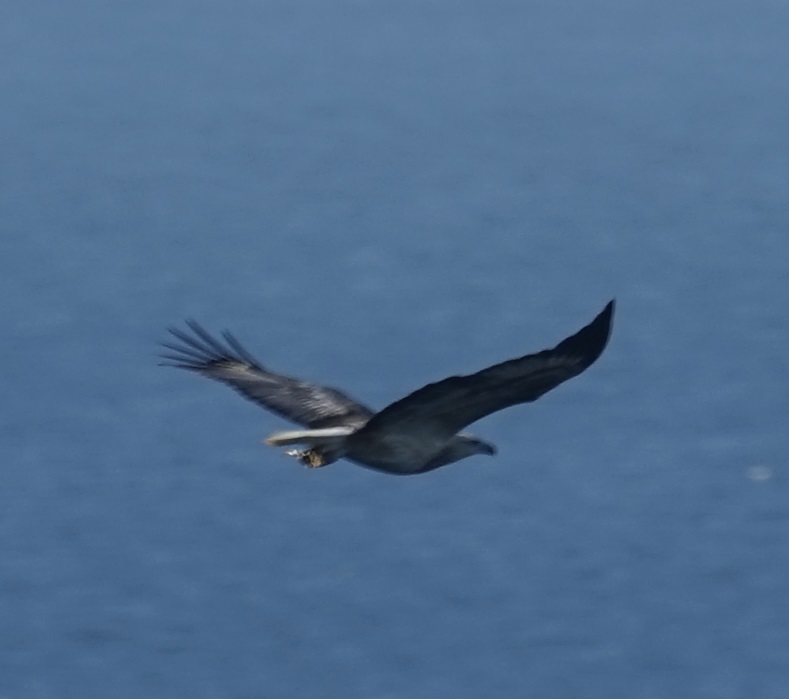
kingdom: Animalia
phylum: Chordata
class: Aves
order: Accipitriformes
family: Accipitridae
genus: Haliaeetus
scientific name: Haliaeetus leucogaster
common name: White-bellied sea eagle
